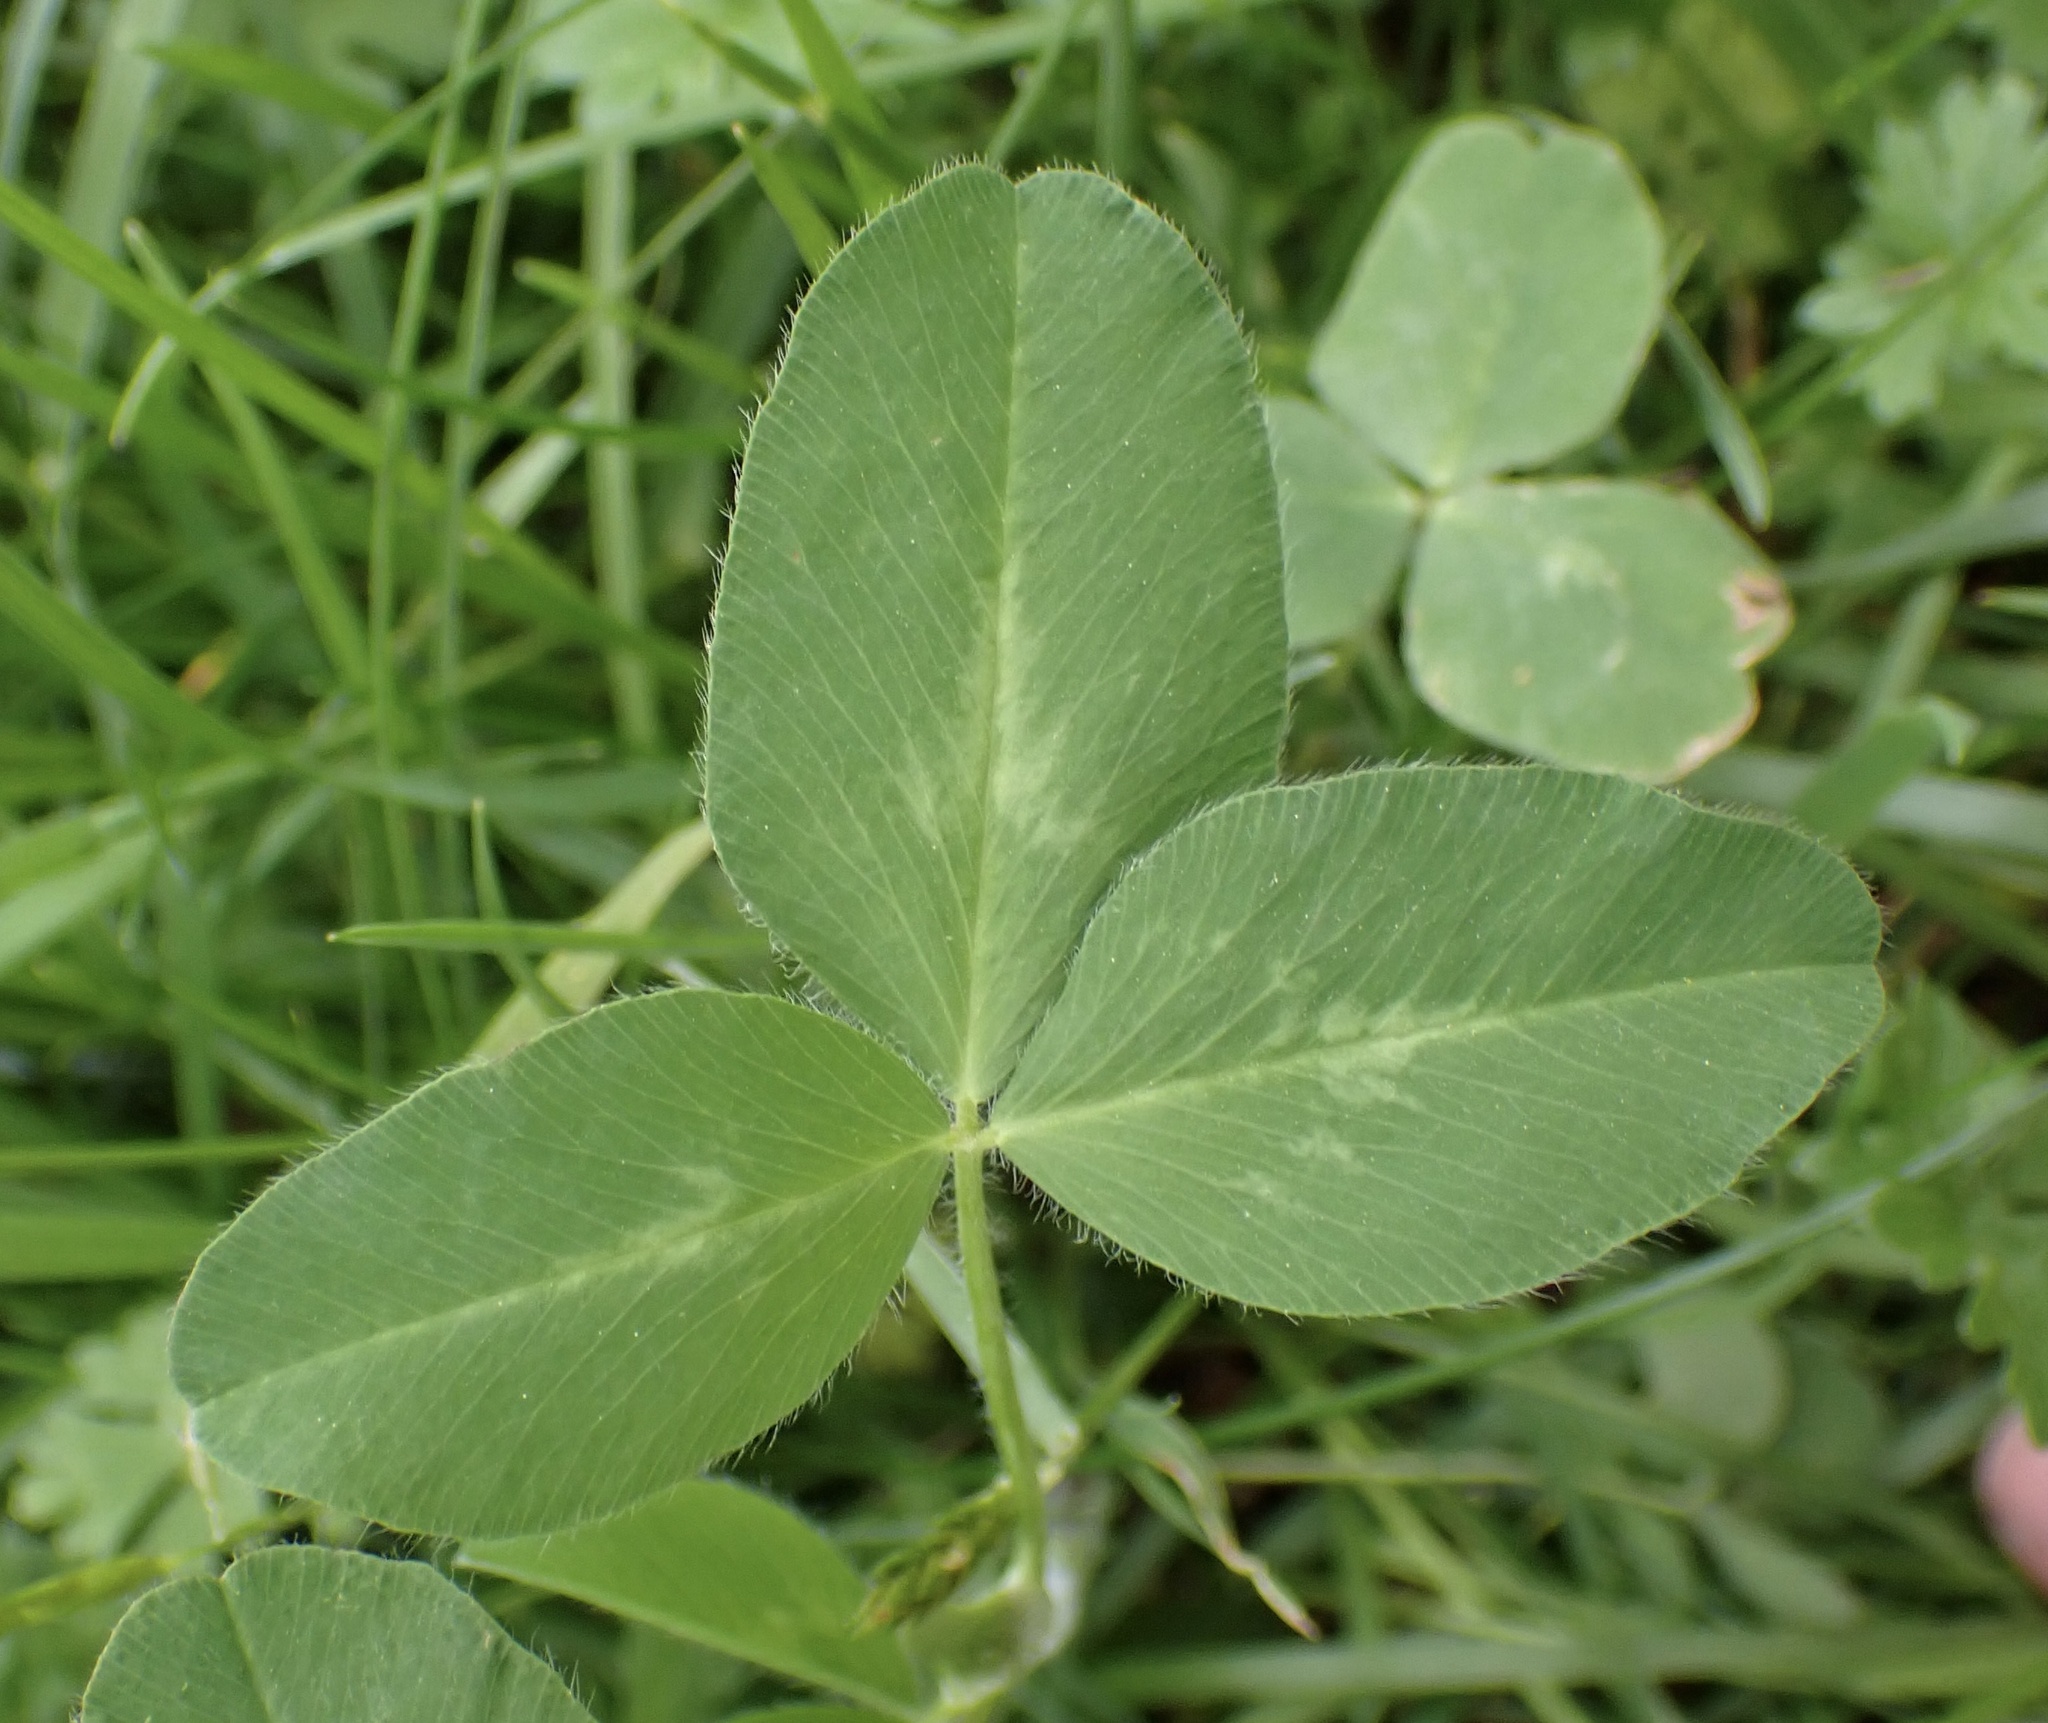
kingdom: Plantae
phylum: Tracheophyta
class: Magnoliopsida
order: Fabales
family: Fabaceae
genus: Trifolium
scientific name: Trifolium pratense
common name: Red clover
